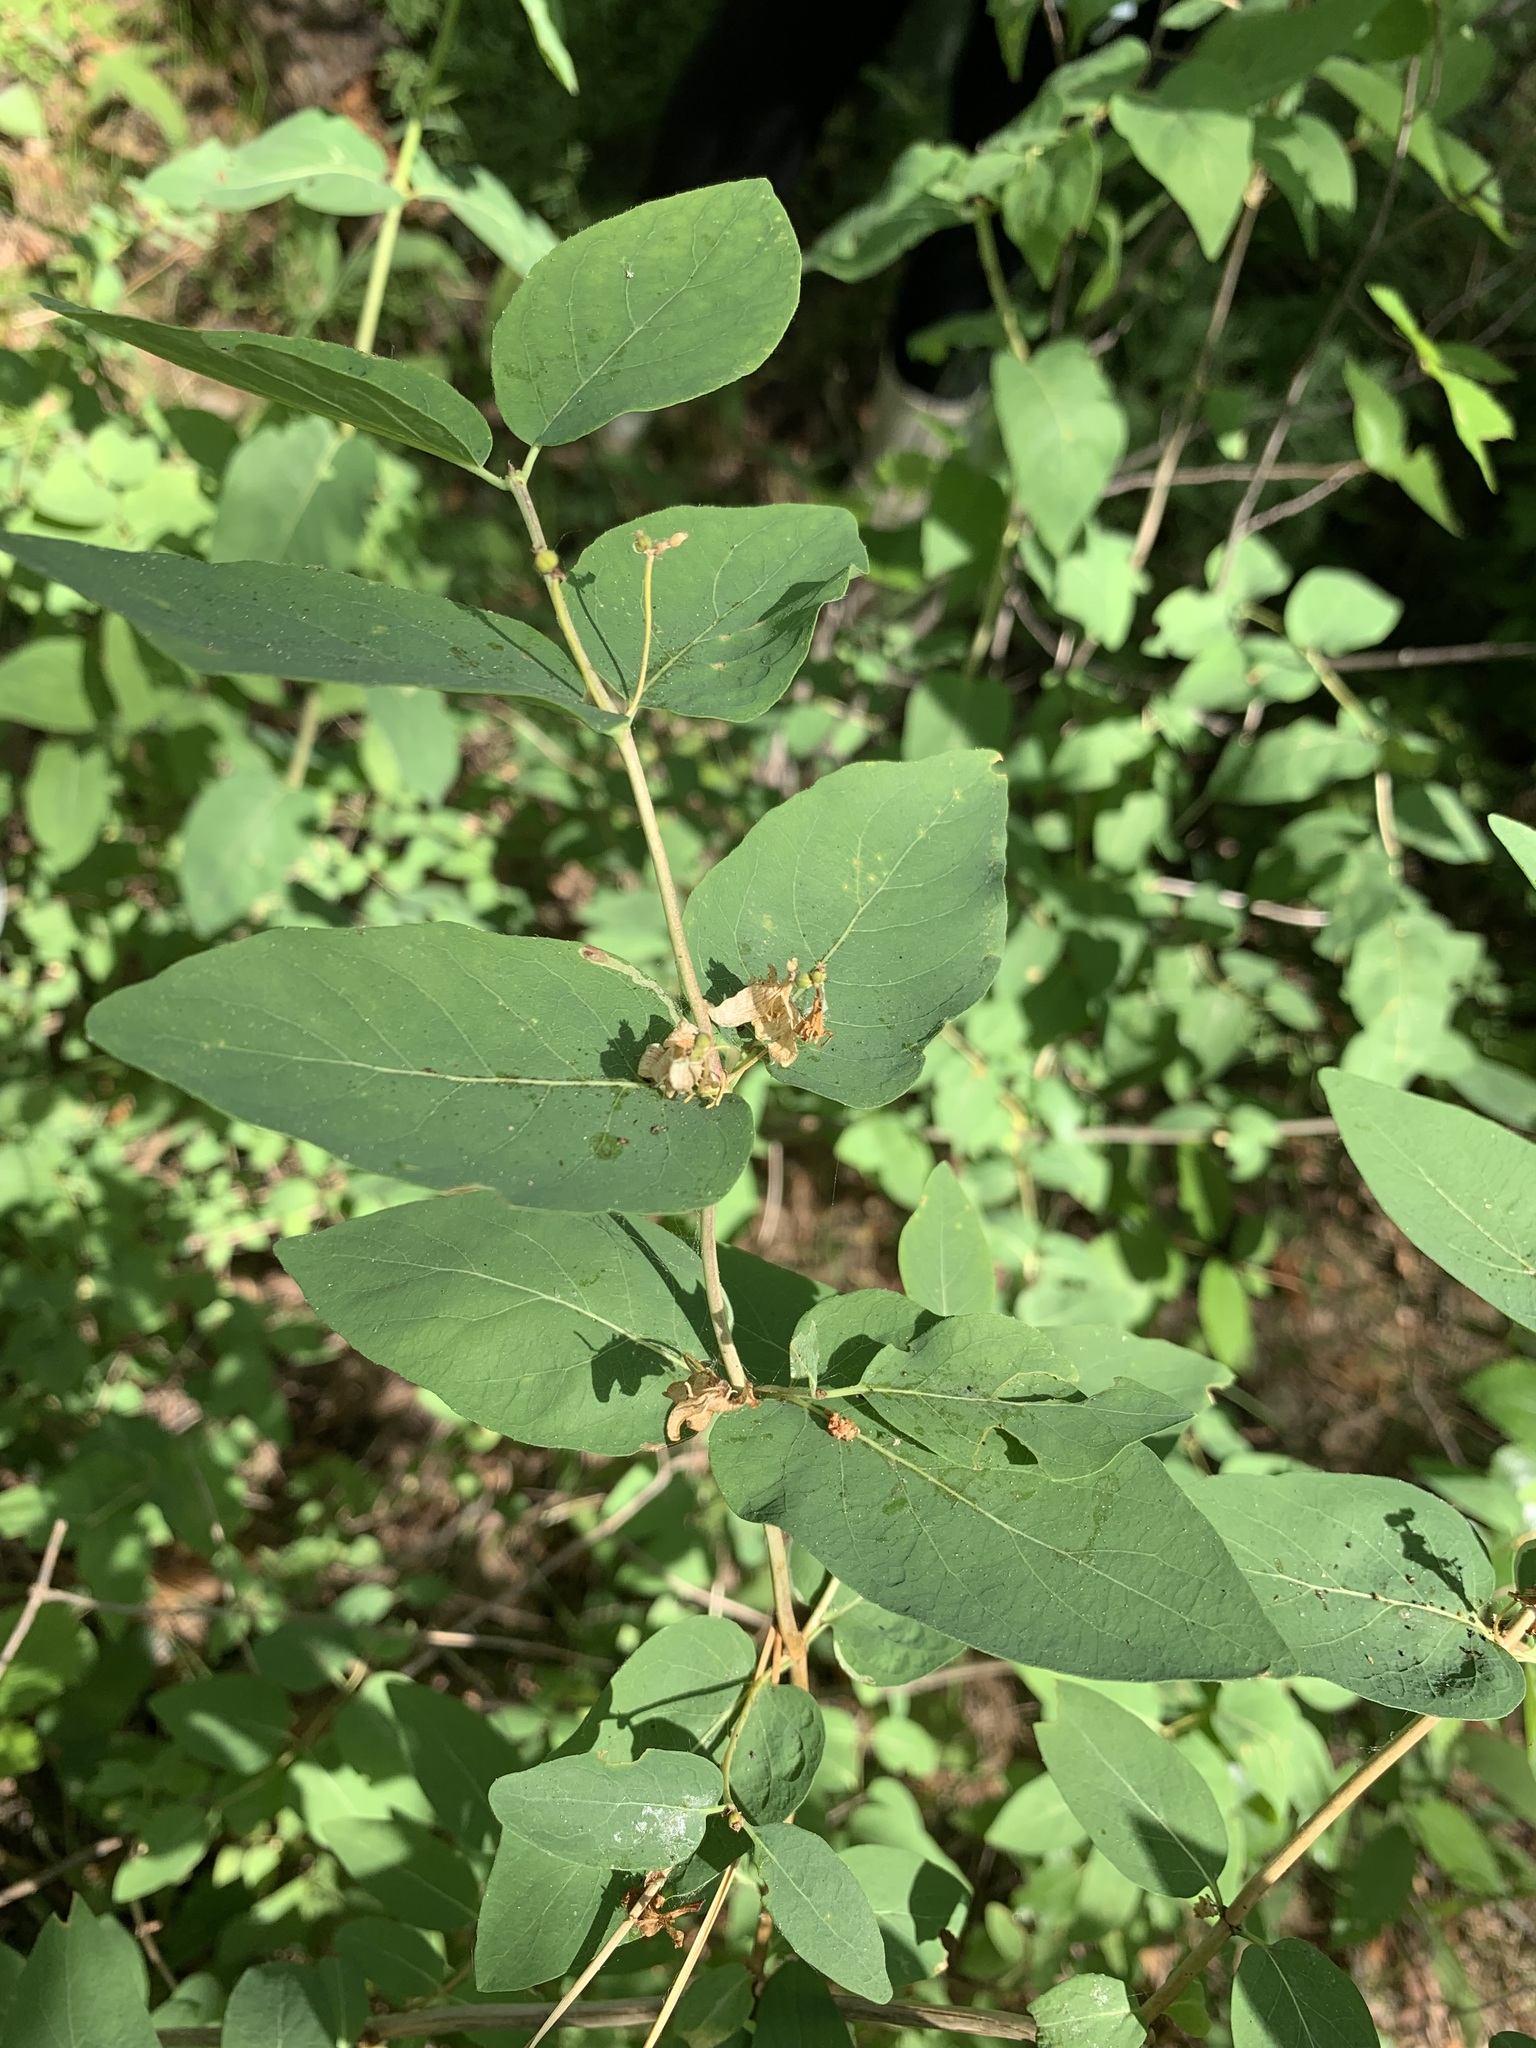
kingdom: Plantae
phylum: Tracheophyta
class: Magnoliopsida
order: Dipsacales
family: Caprifoliaceae
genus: Lonicera
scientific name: Lonicera tatarica
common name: Tatarian honeysuckle
